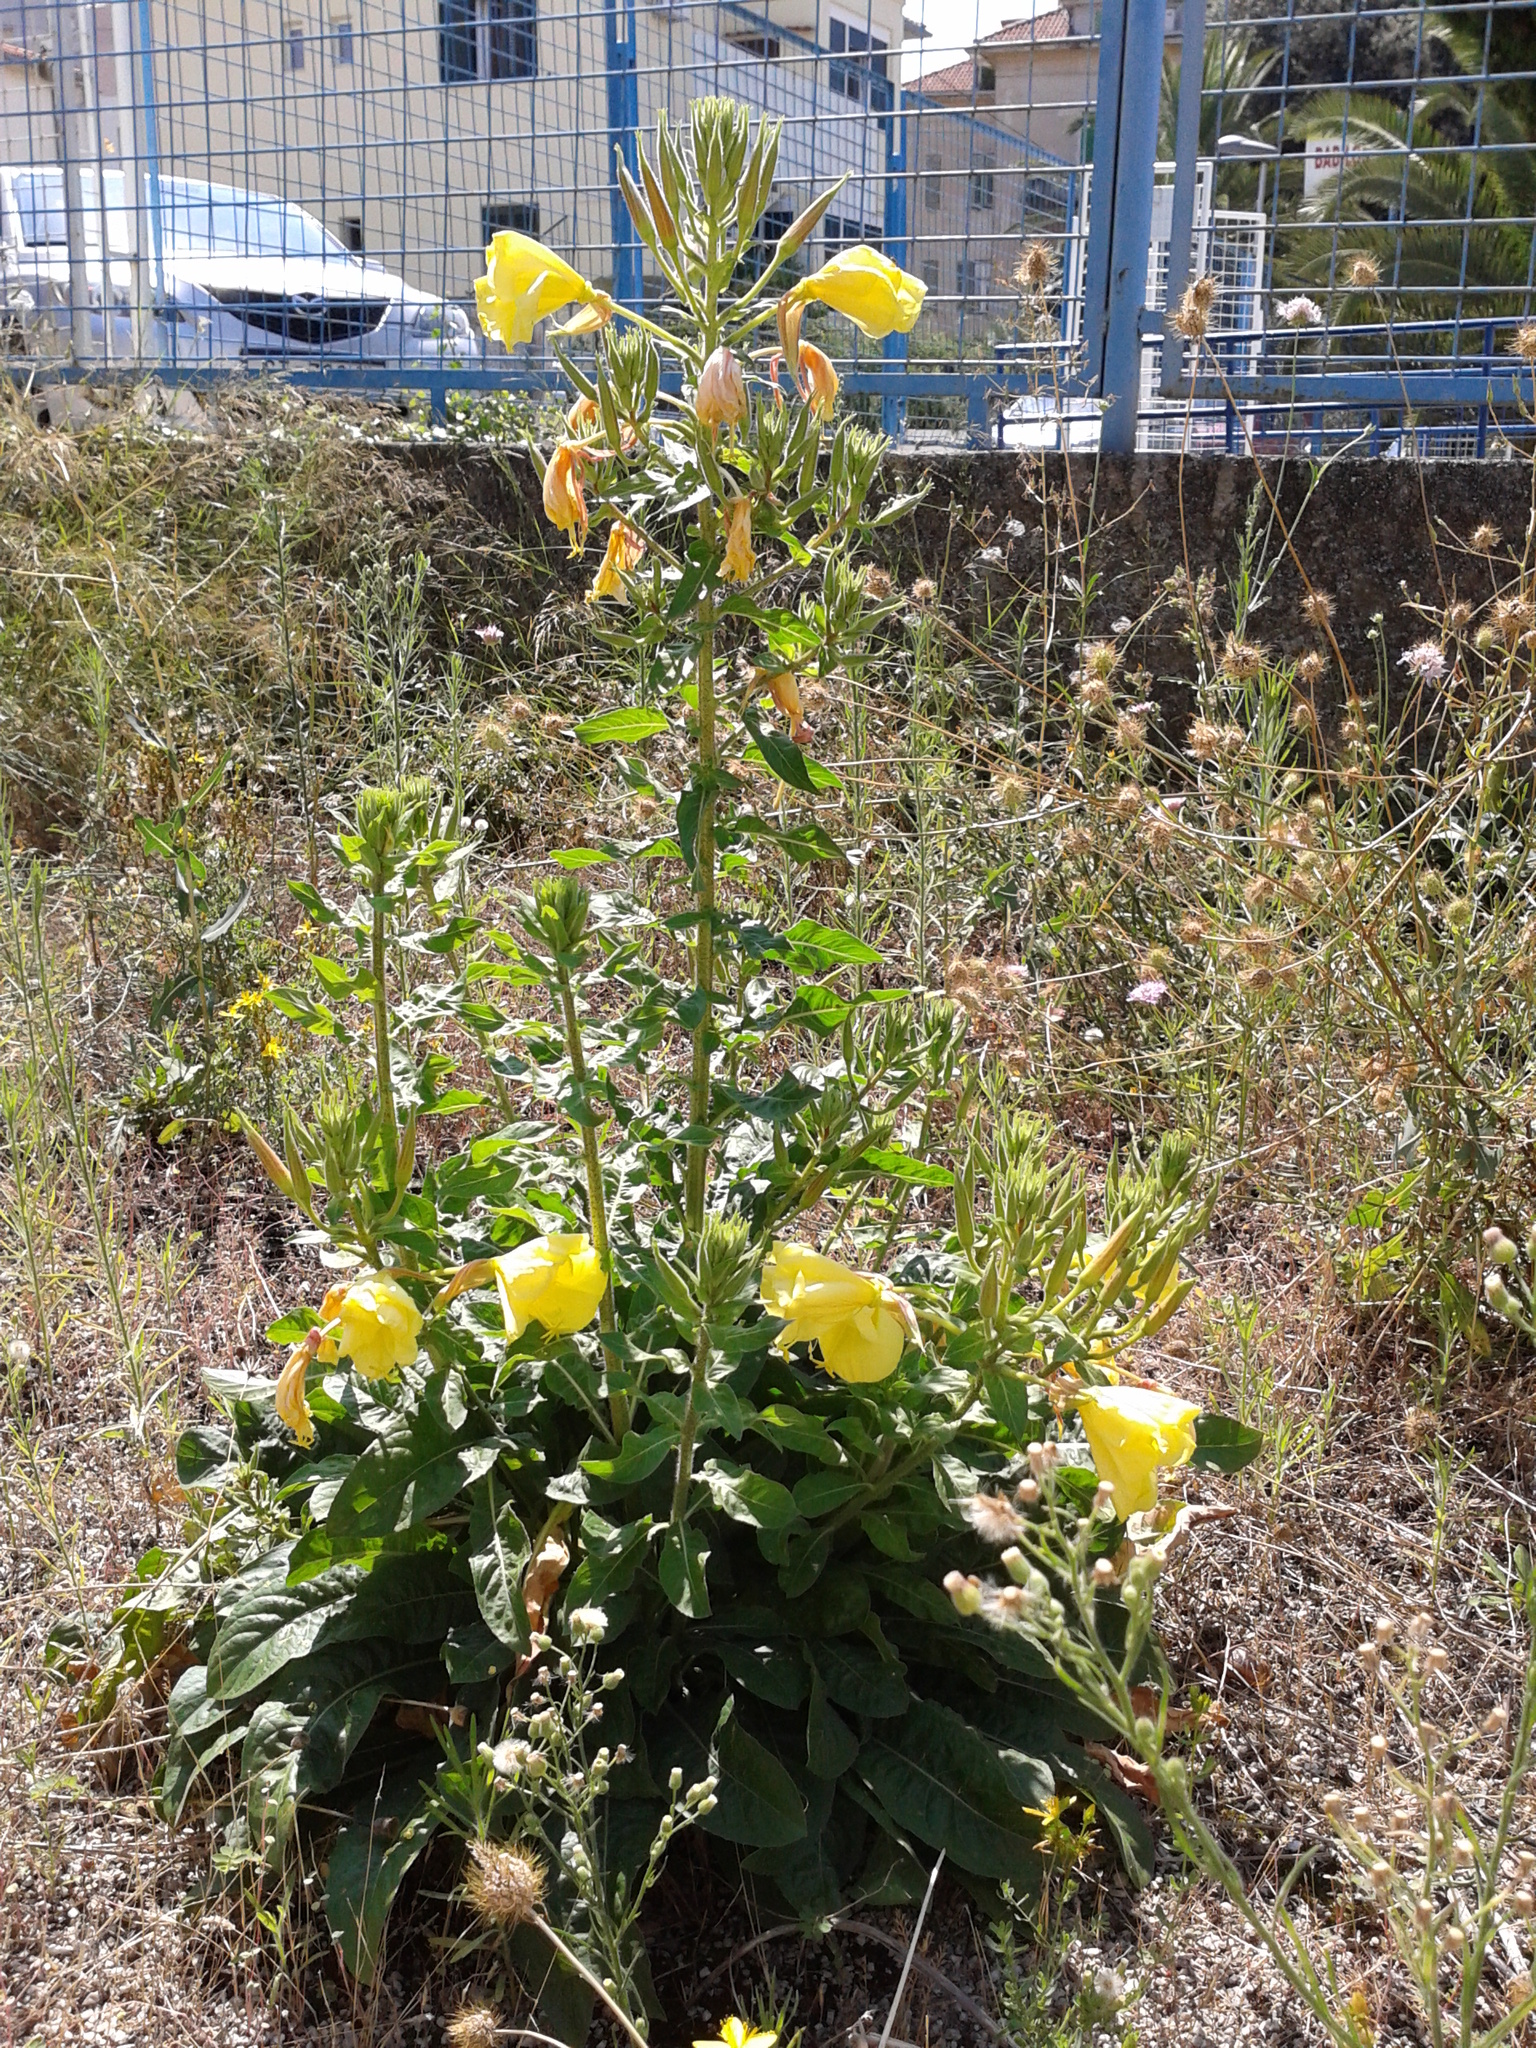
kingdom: Plantae
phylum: Tracheophyta
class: Magnoliopsida
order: Myrtales
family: Onagraceae
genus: Oenothera
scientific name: Oenothera glazioviana
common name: Large-flowered evening-primrose
